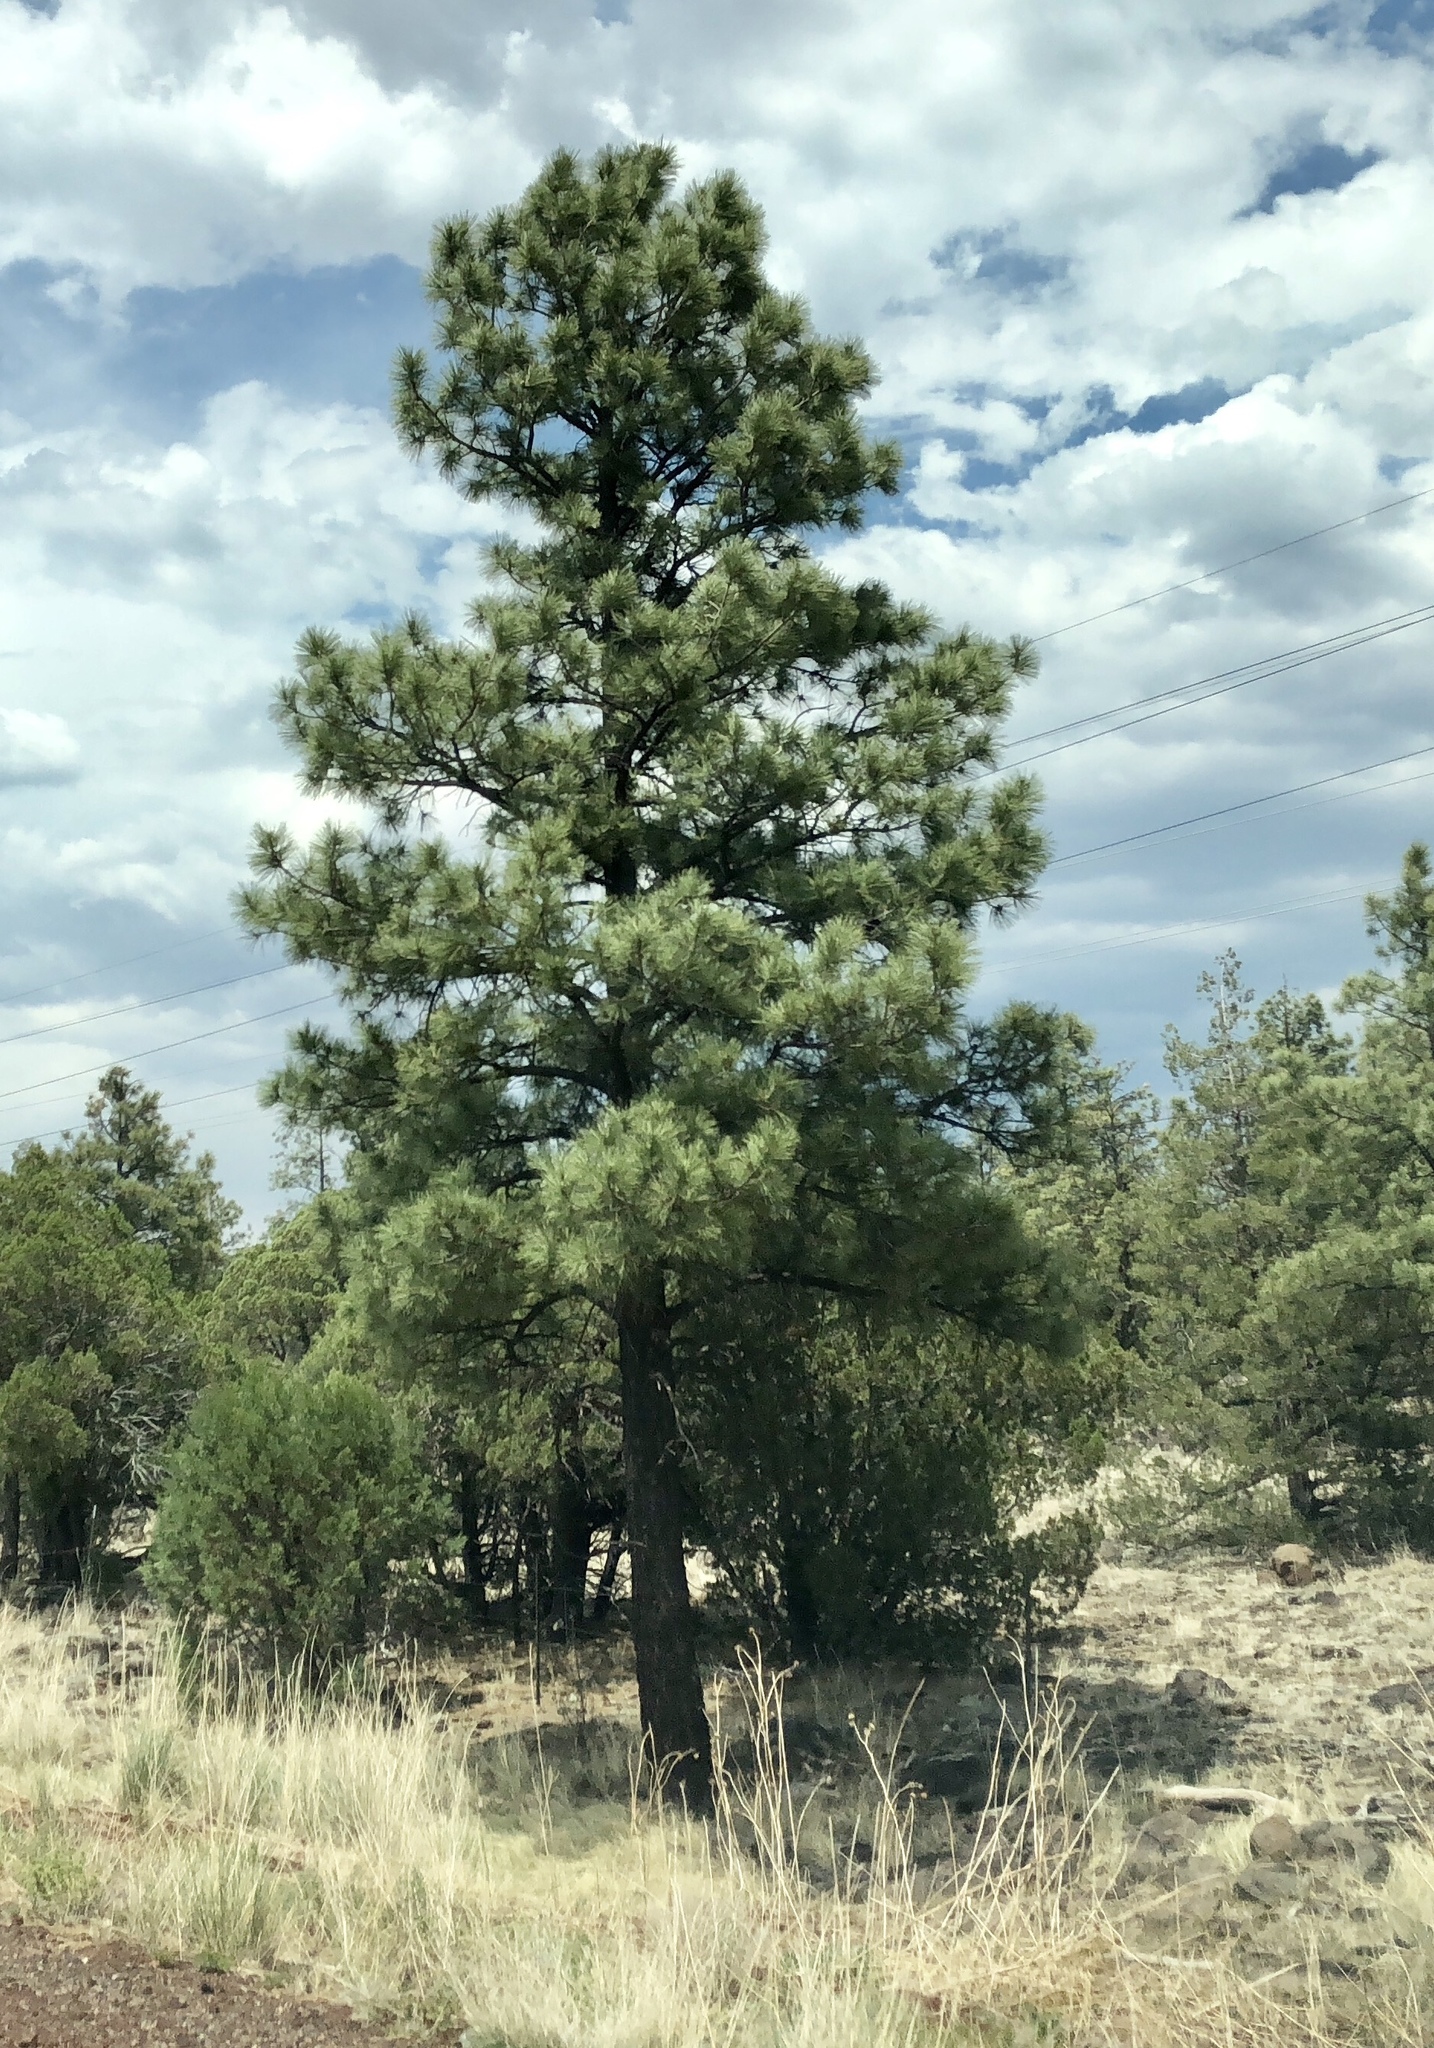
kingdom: Plantae
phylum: Tracheophyta
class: Pinopsida
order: Pinales
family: Pinaceae
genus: Pinus
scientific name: Pinus ponderosa
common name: Western yellow-pine
